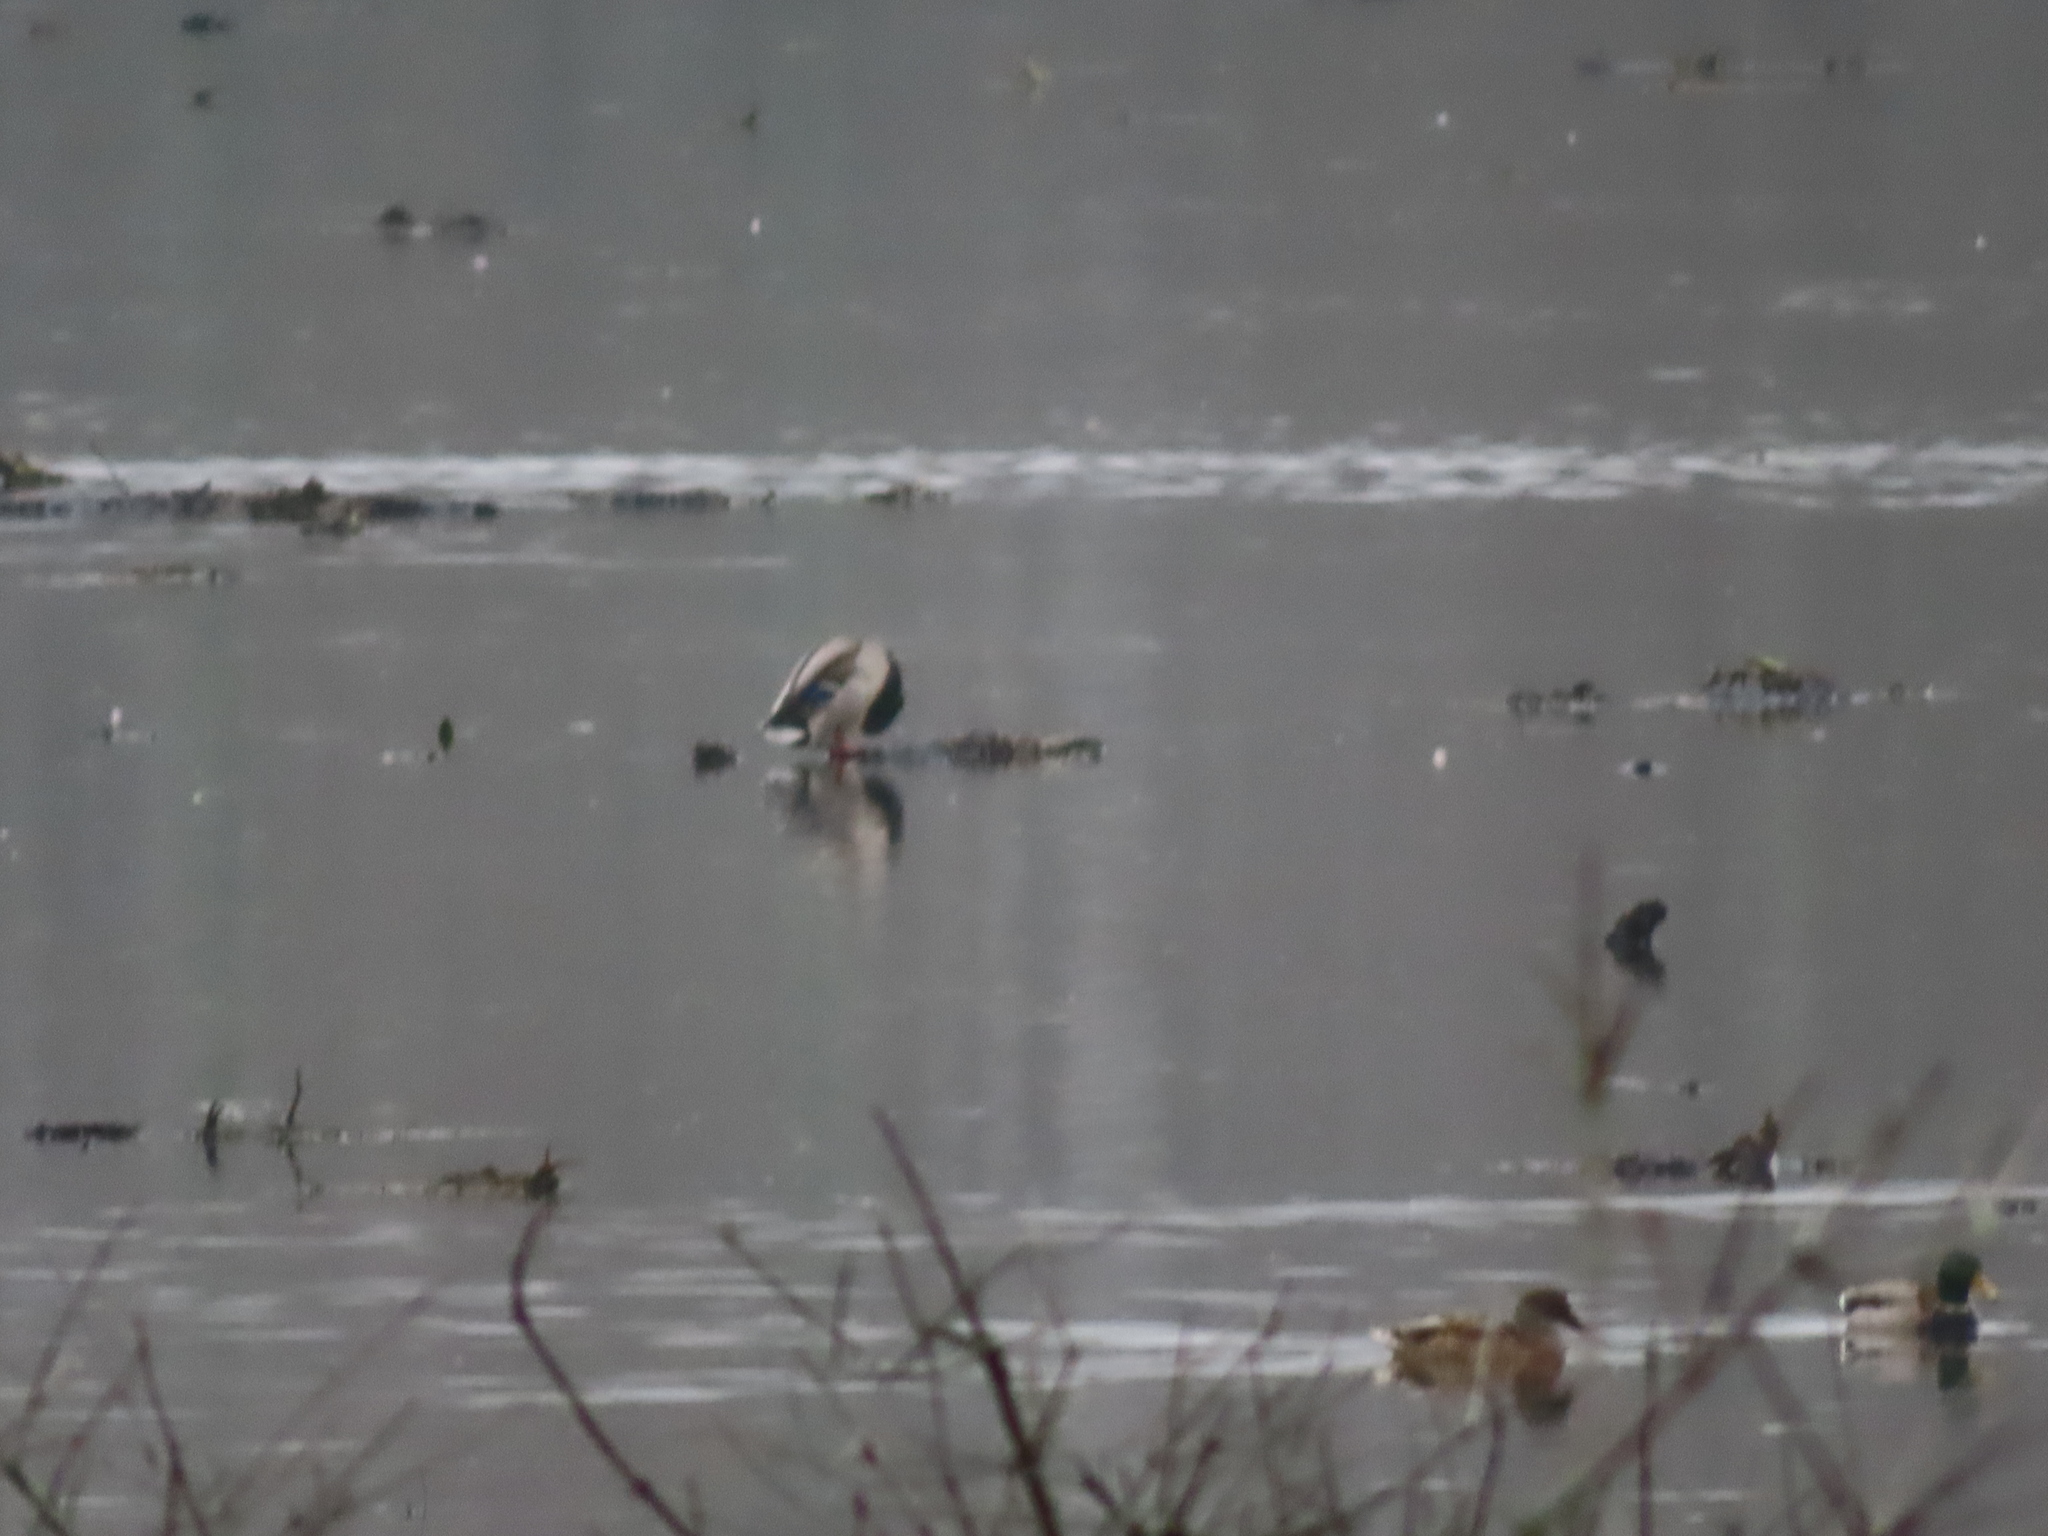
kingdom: Animalia
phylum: Chordata
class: Aves
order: Anseriformes
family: Anatidae
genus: Anas
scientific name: Anas platyrhynchos
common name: Mallard
